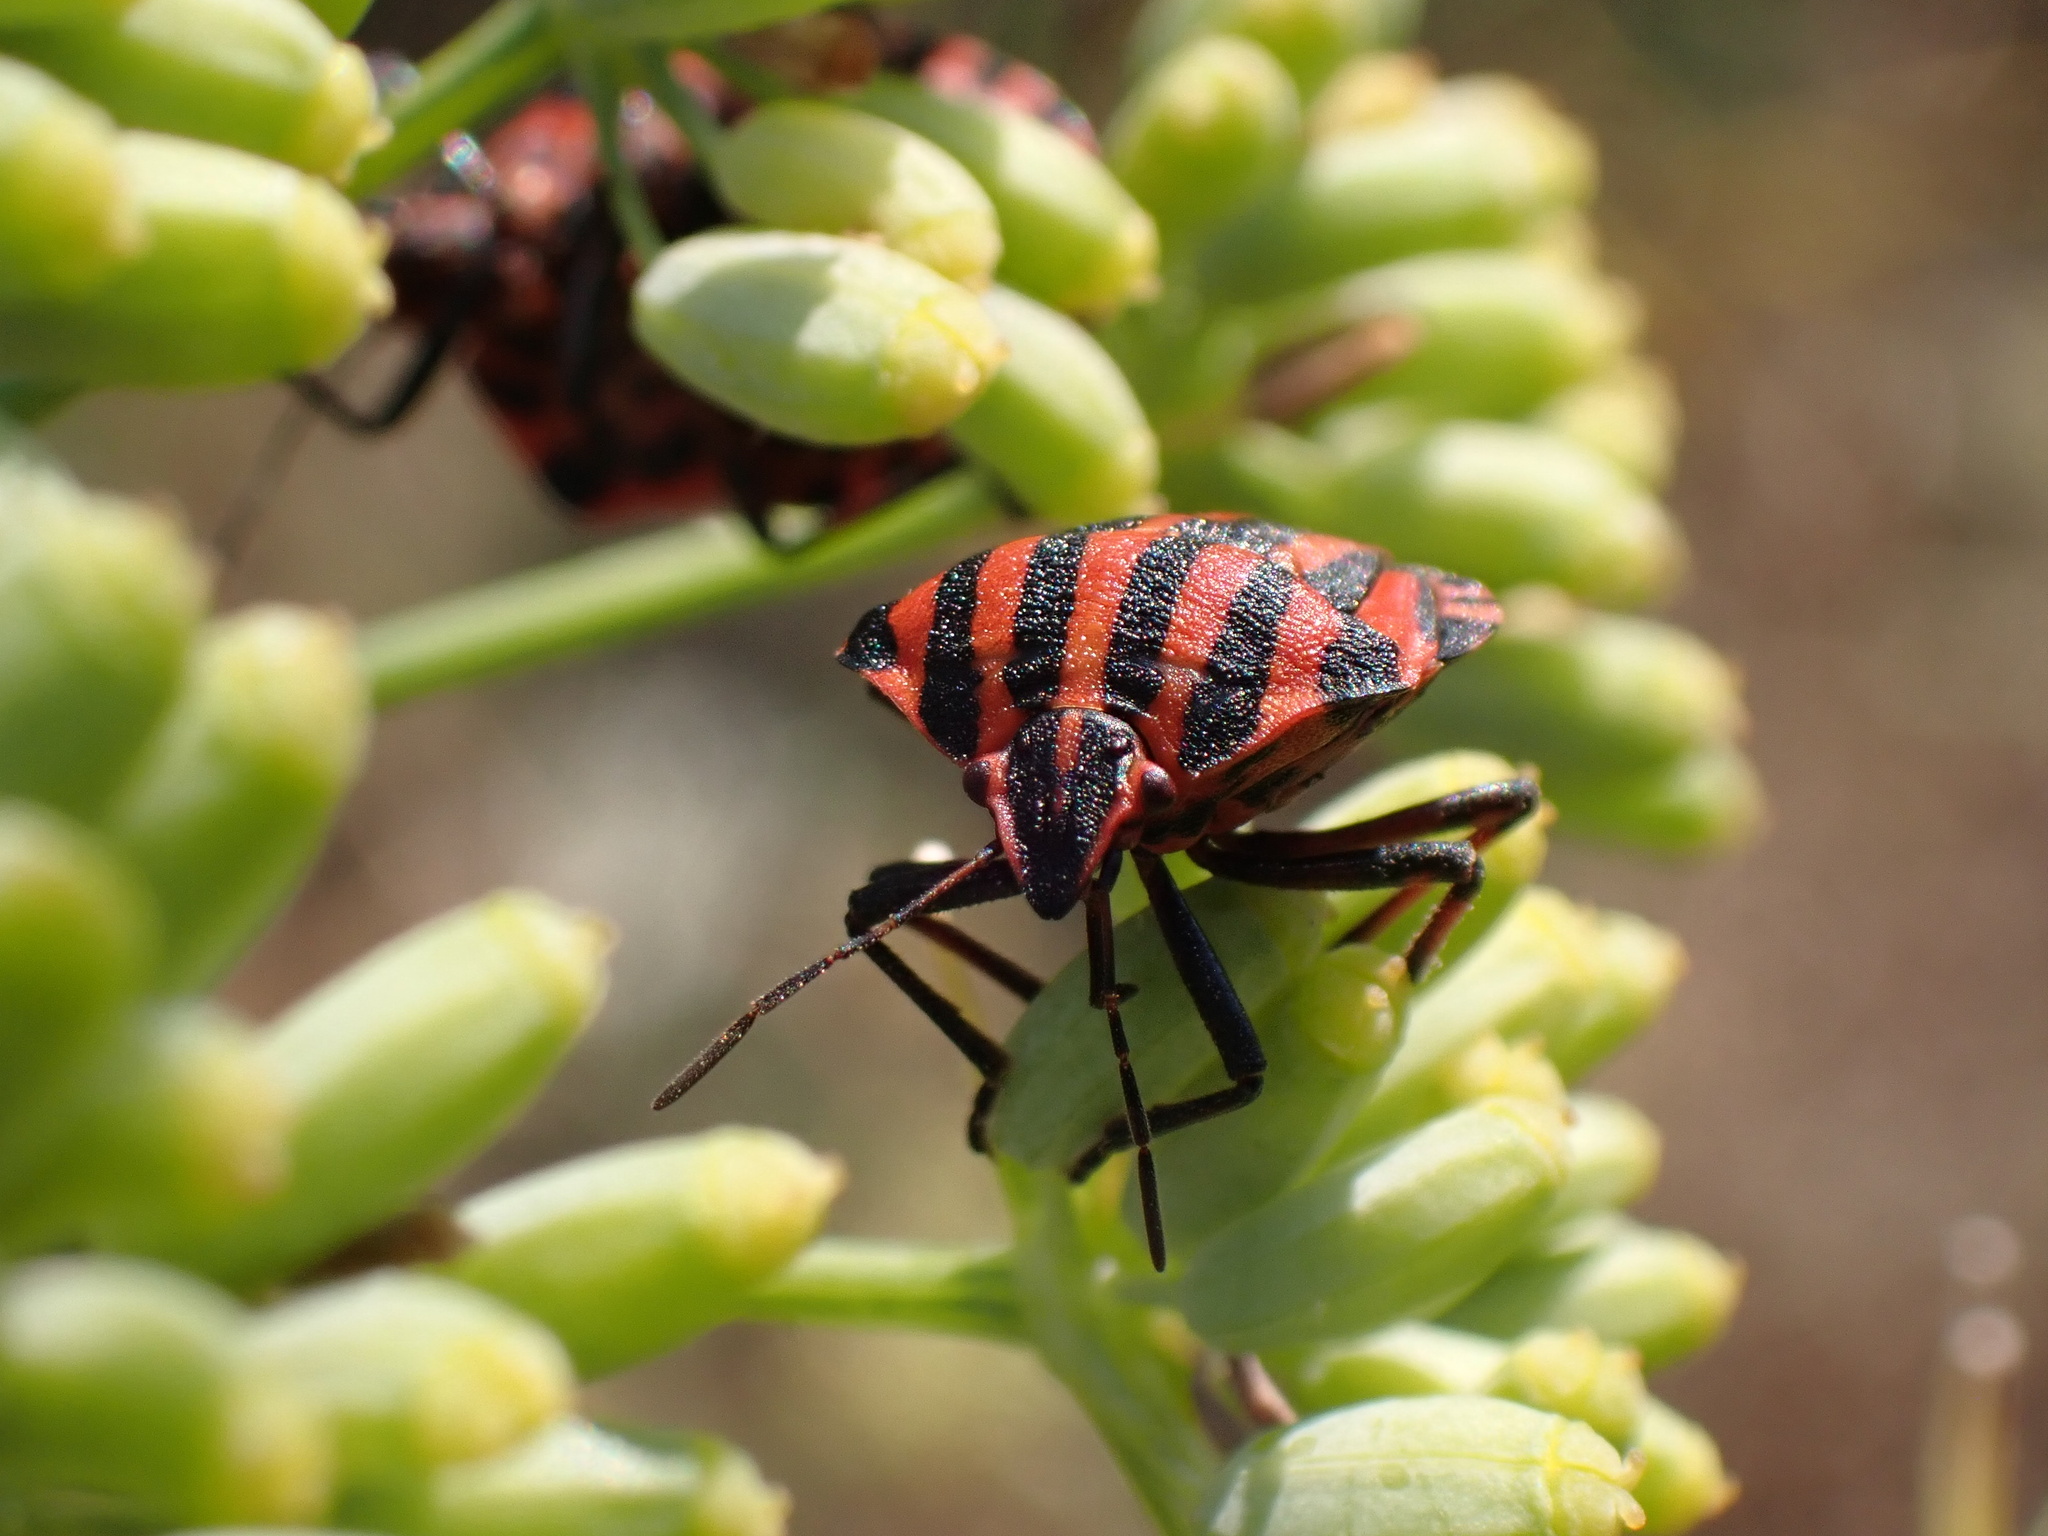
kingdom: Animalia
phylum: Arthropoda
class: Insecta
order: Hemiptera
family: Pentatomidae
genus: Graphosoma
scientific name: Graphosoma italicum
